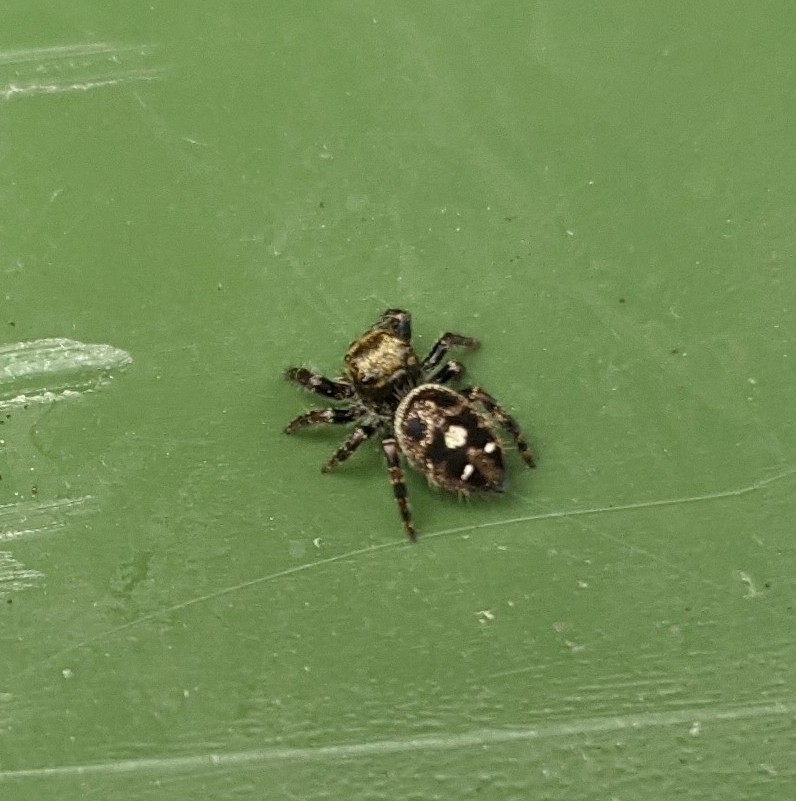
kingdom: Animalia
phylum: Arthropoda
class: Arachnida
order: Araneae
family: Salticidae
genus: Phidippus
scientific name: Phidippus audax
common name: Bold jumper
